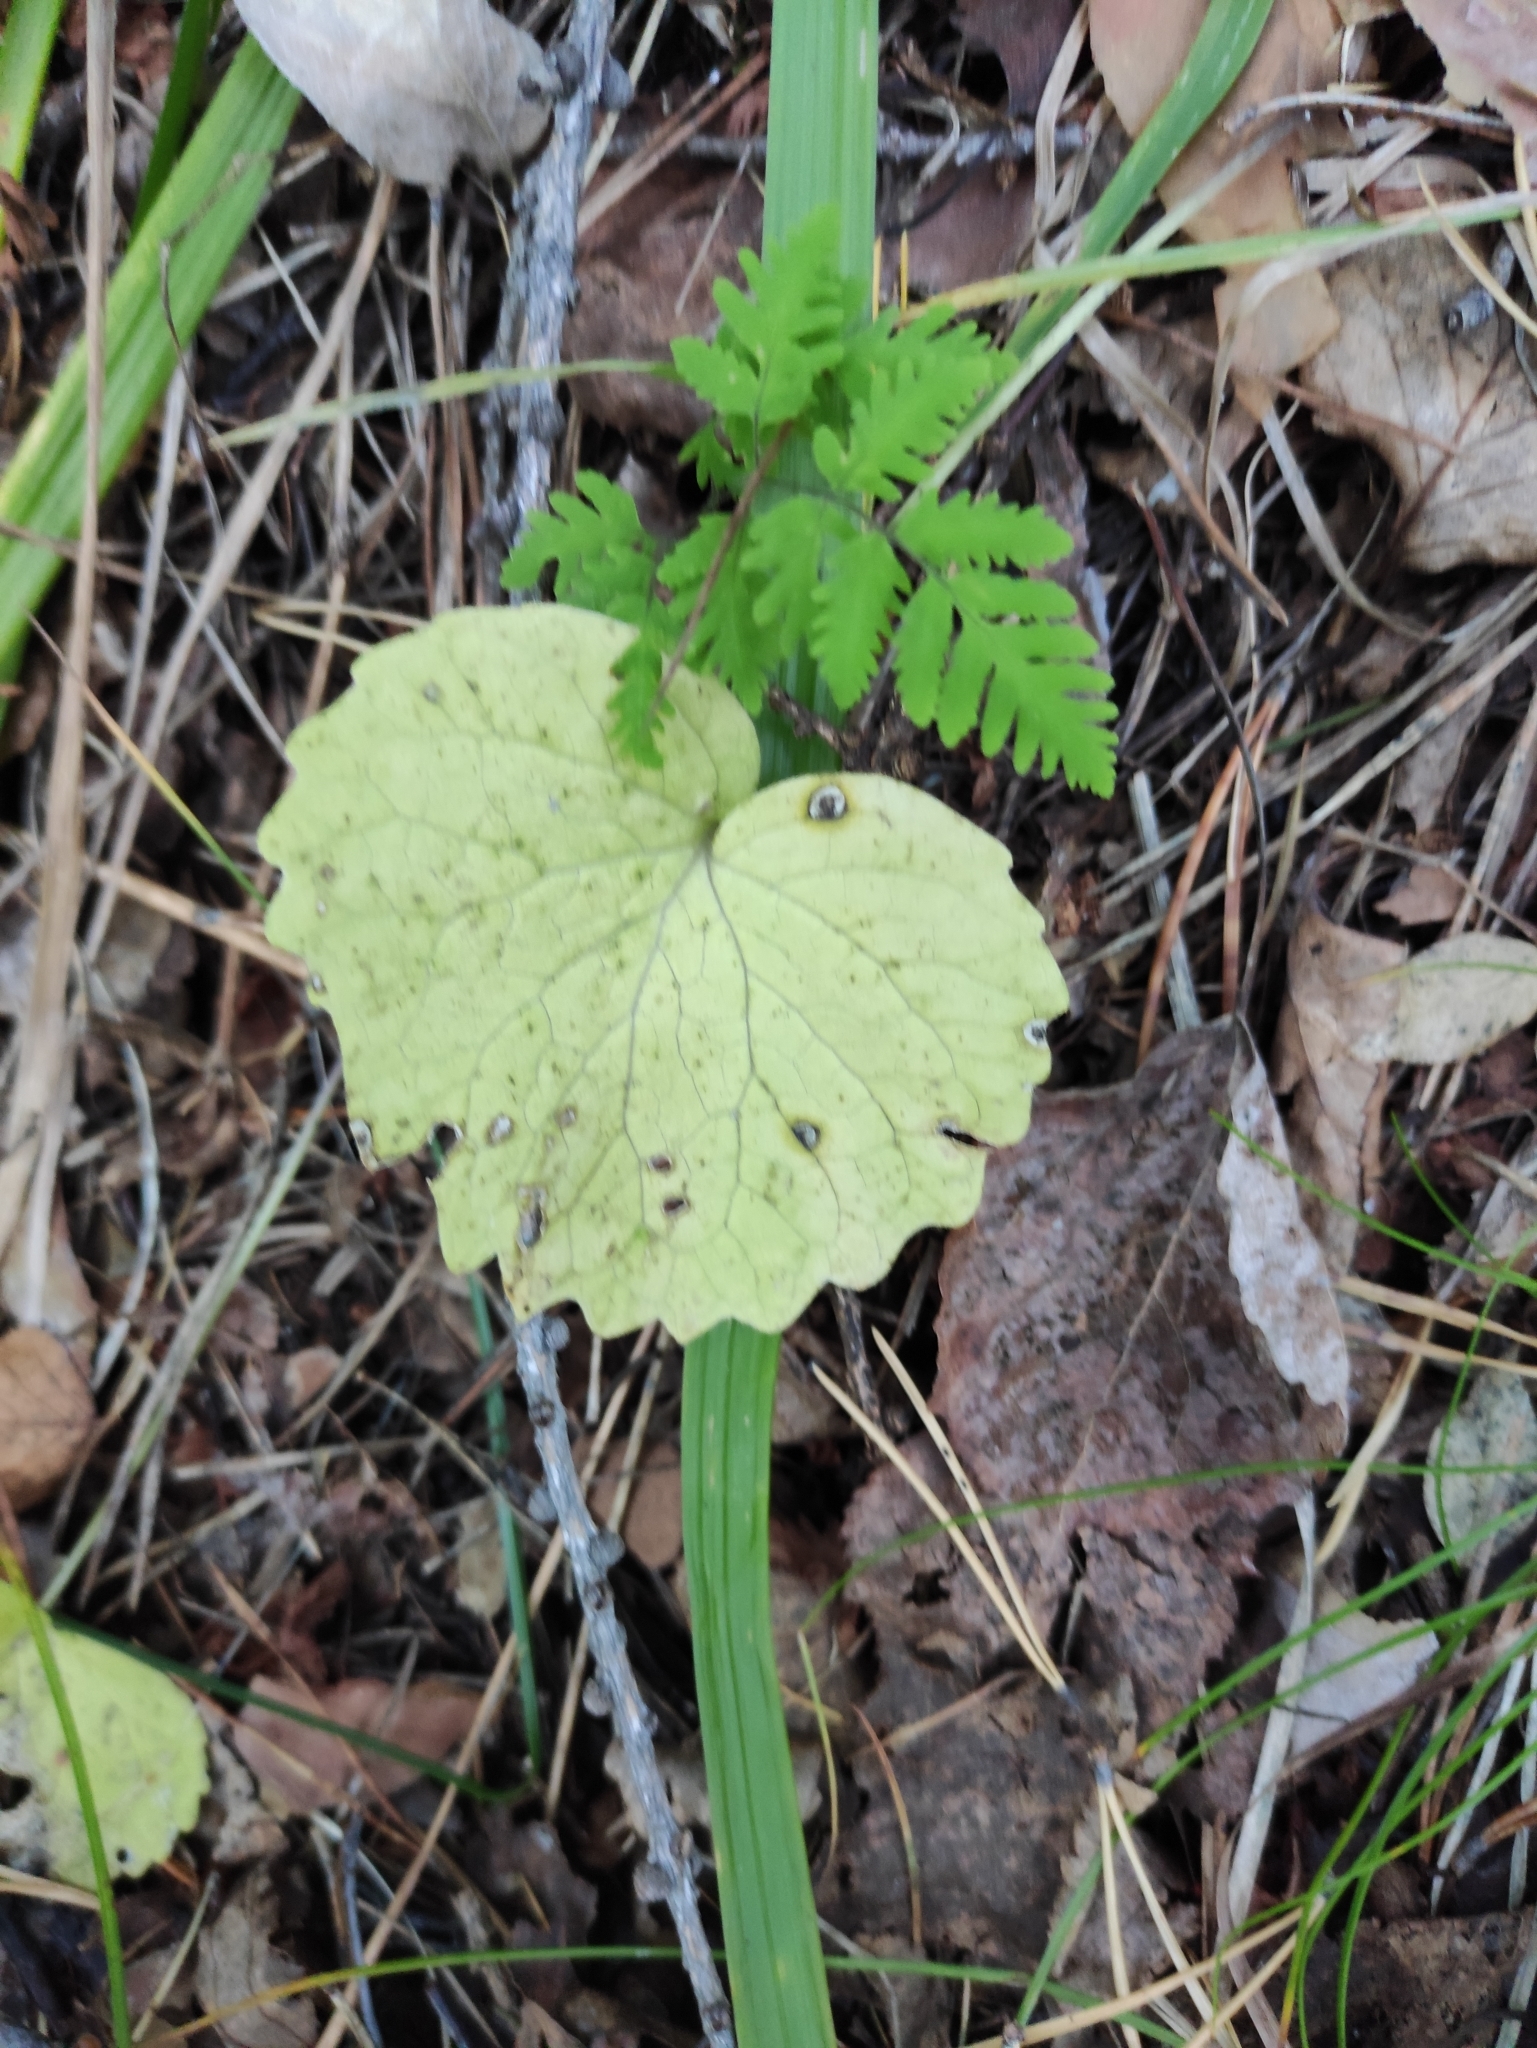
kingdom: Plantae
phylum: Tracheophyta
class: Magnoliopsida
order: Malpighiales
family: Violaceae
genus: Viola
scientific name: Viola uniflora
